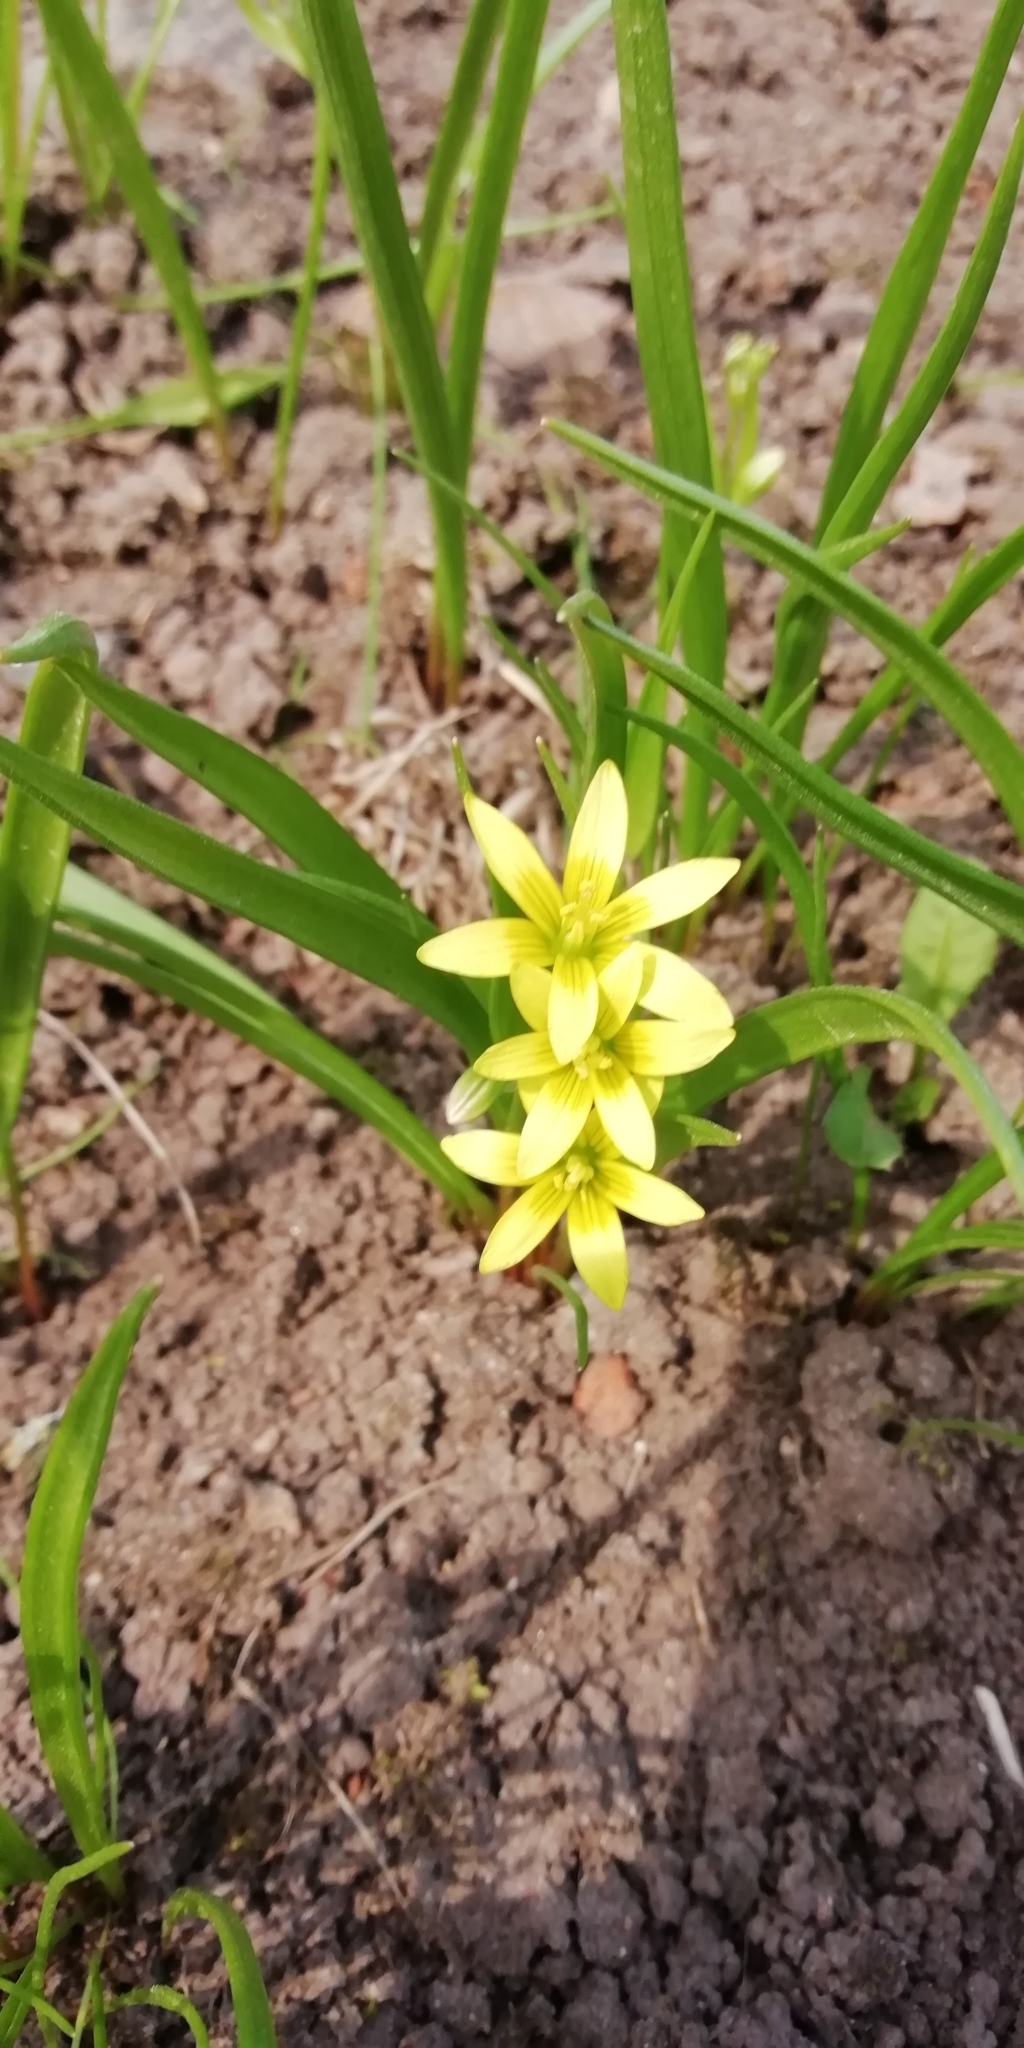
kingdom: Plantae
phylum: Tracheophyta
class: Liliopsida
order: Liliales
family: Liliaceae
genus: Gagea
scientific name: Gagea lutea
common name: Yellow star-of-bethlehem
